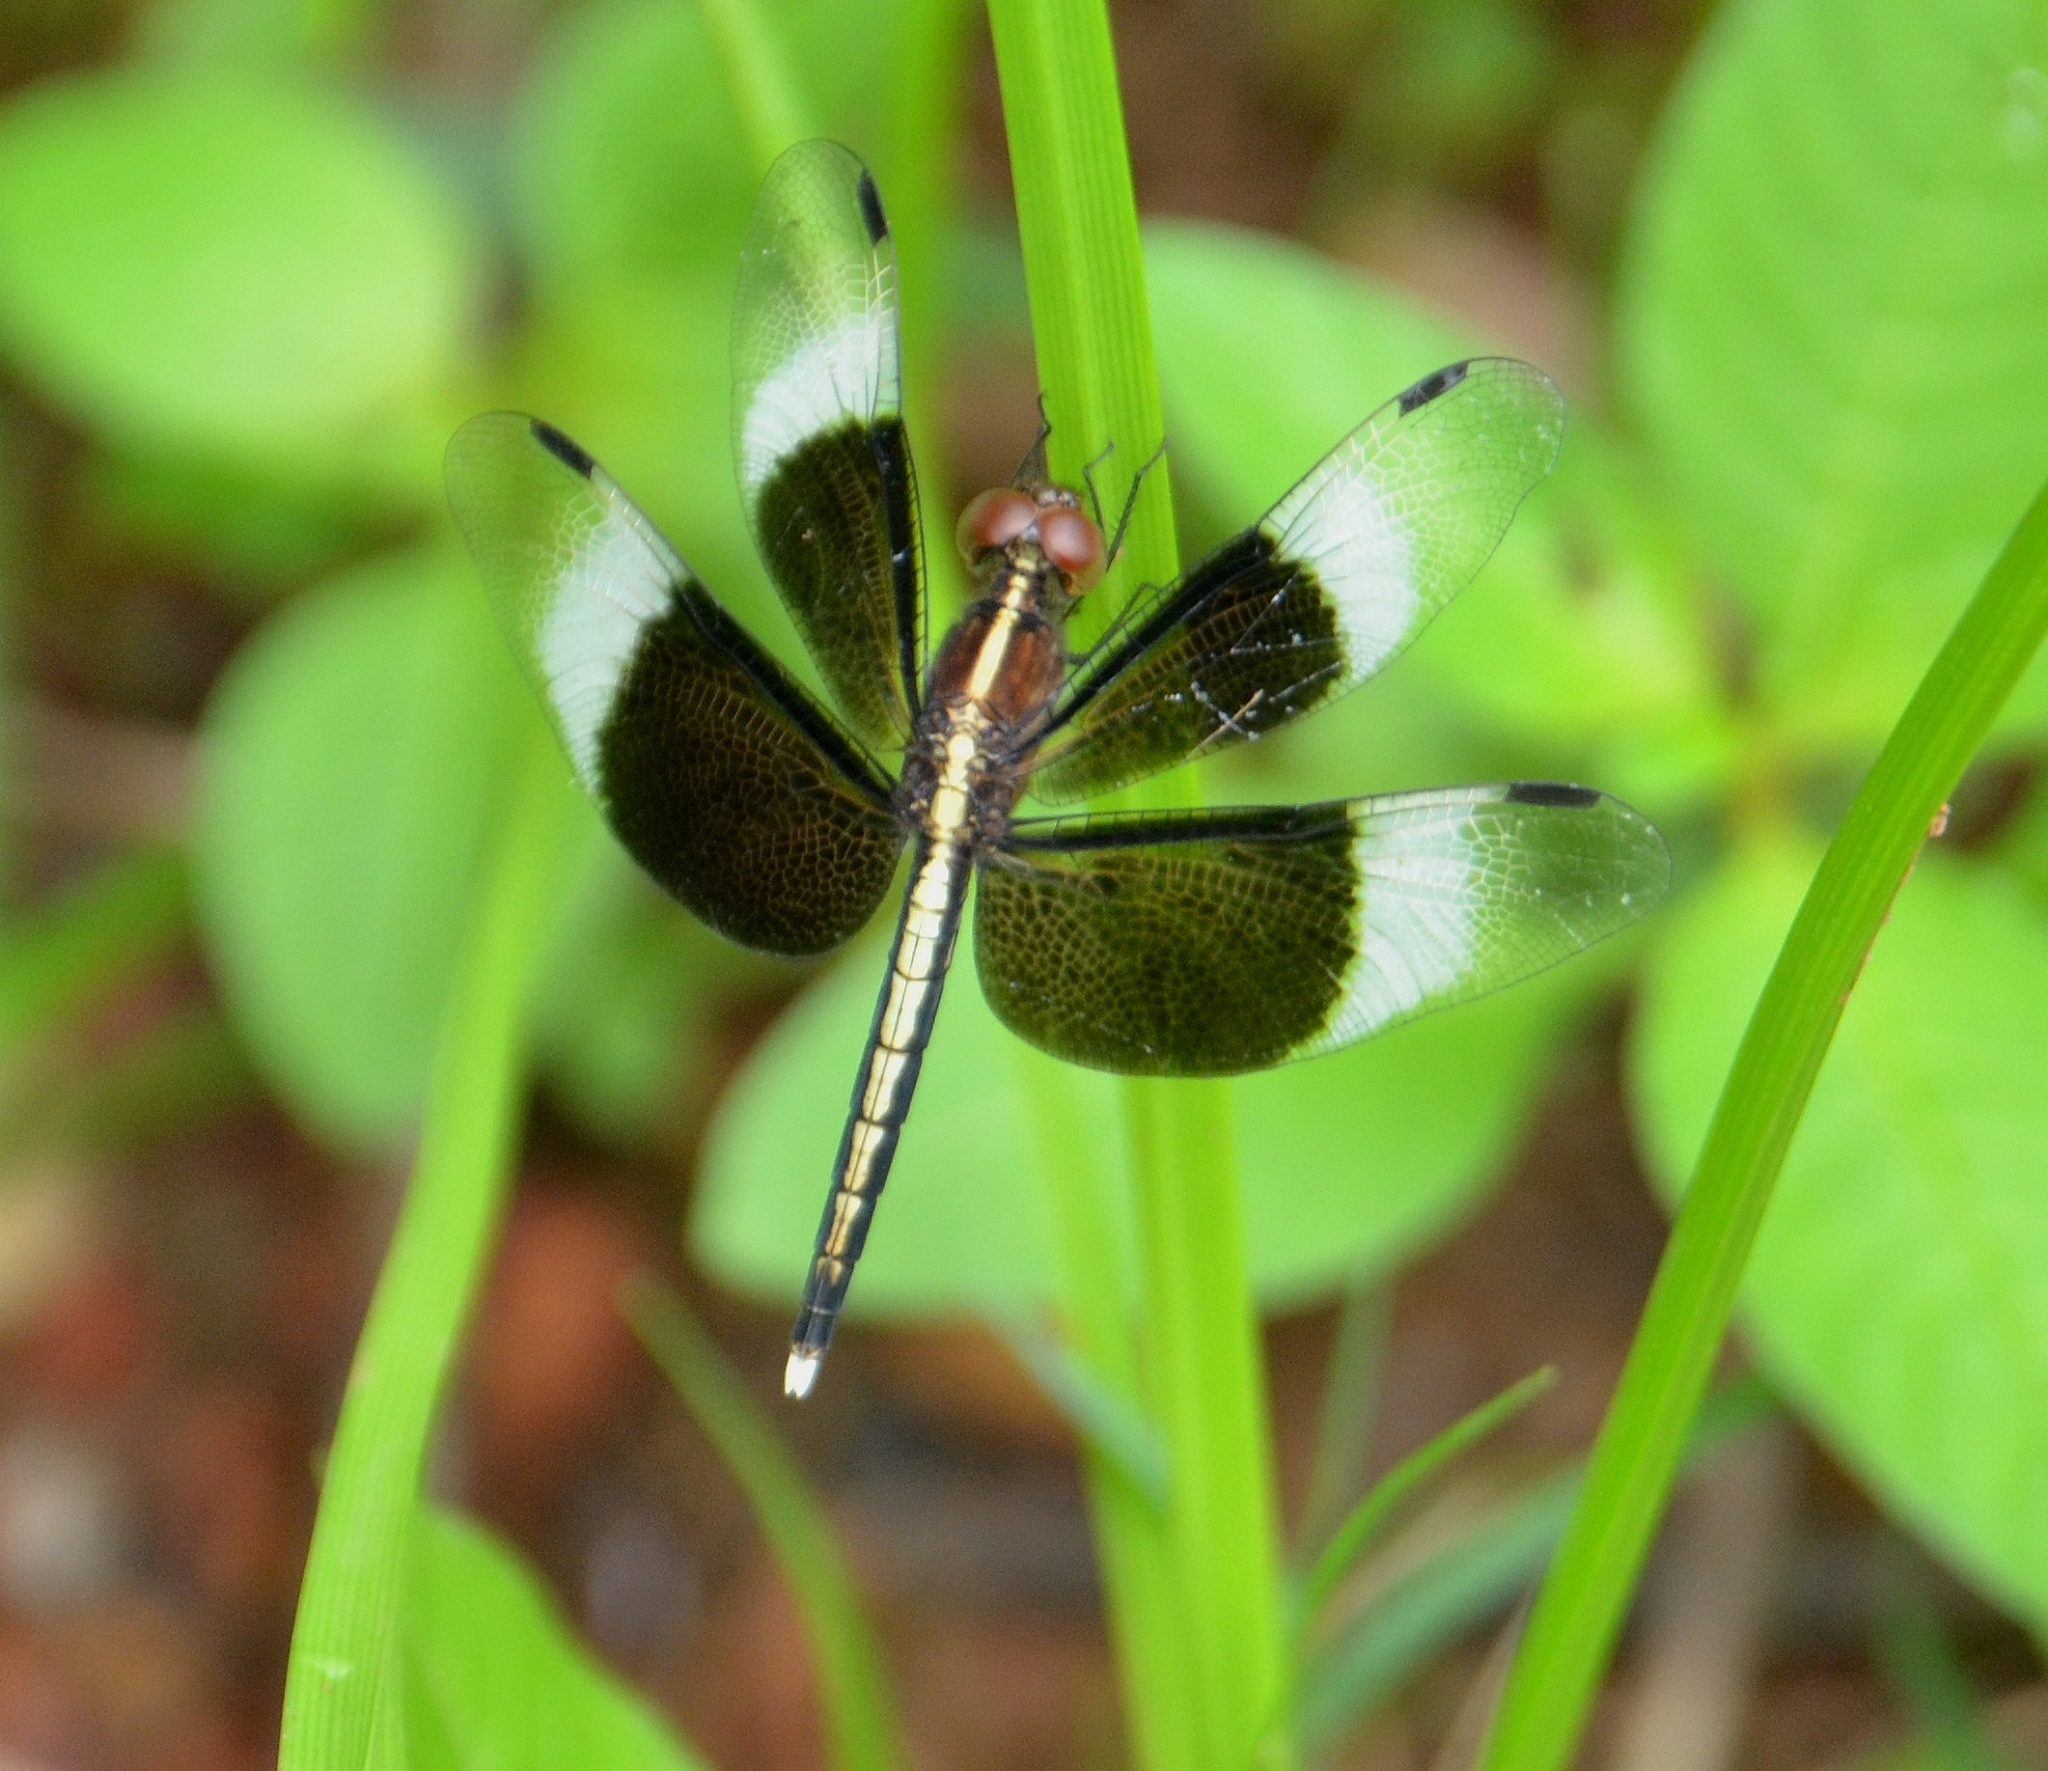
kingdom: Animalia
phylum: Arthropoda
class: Insecta
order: Odonata
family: Libellulidae
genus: Neurothemis
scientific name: Neurothemis tullia
